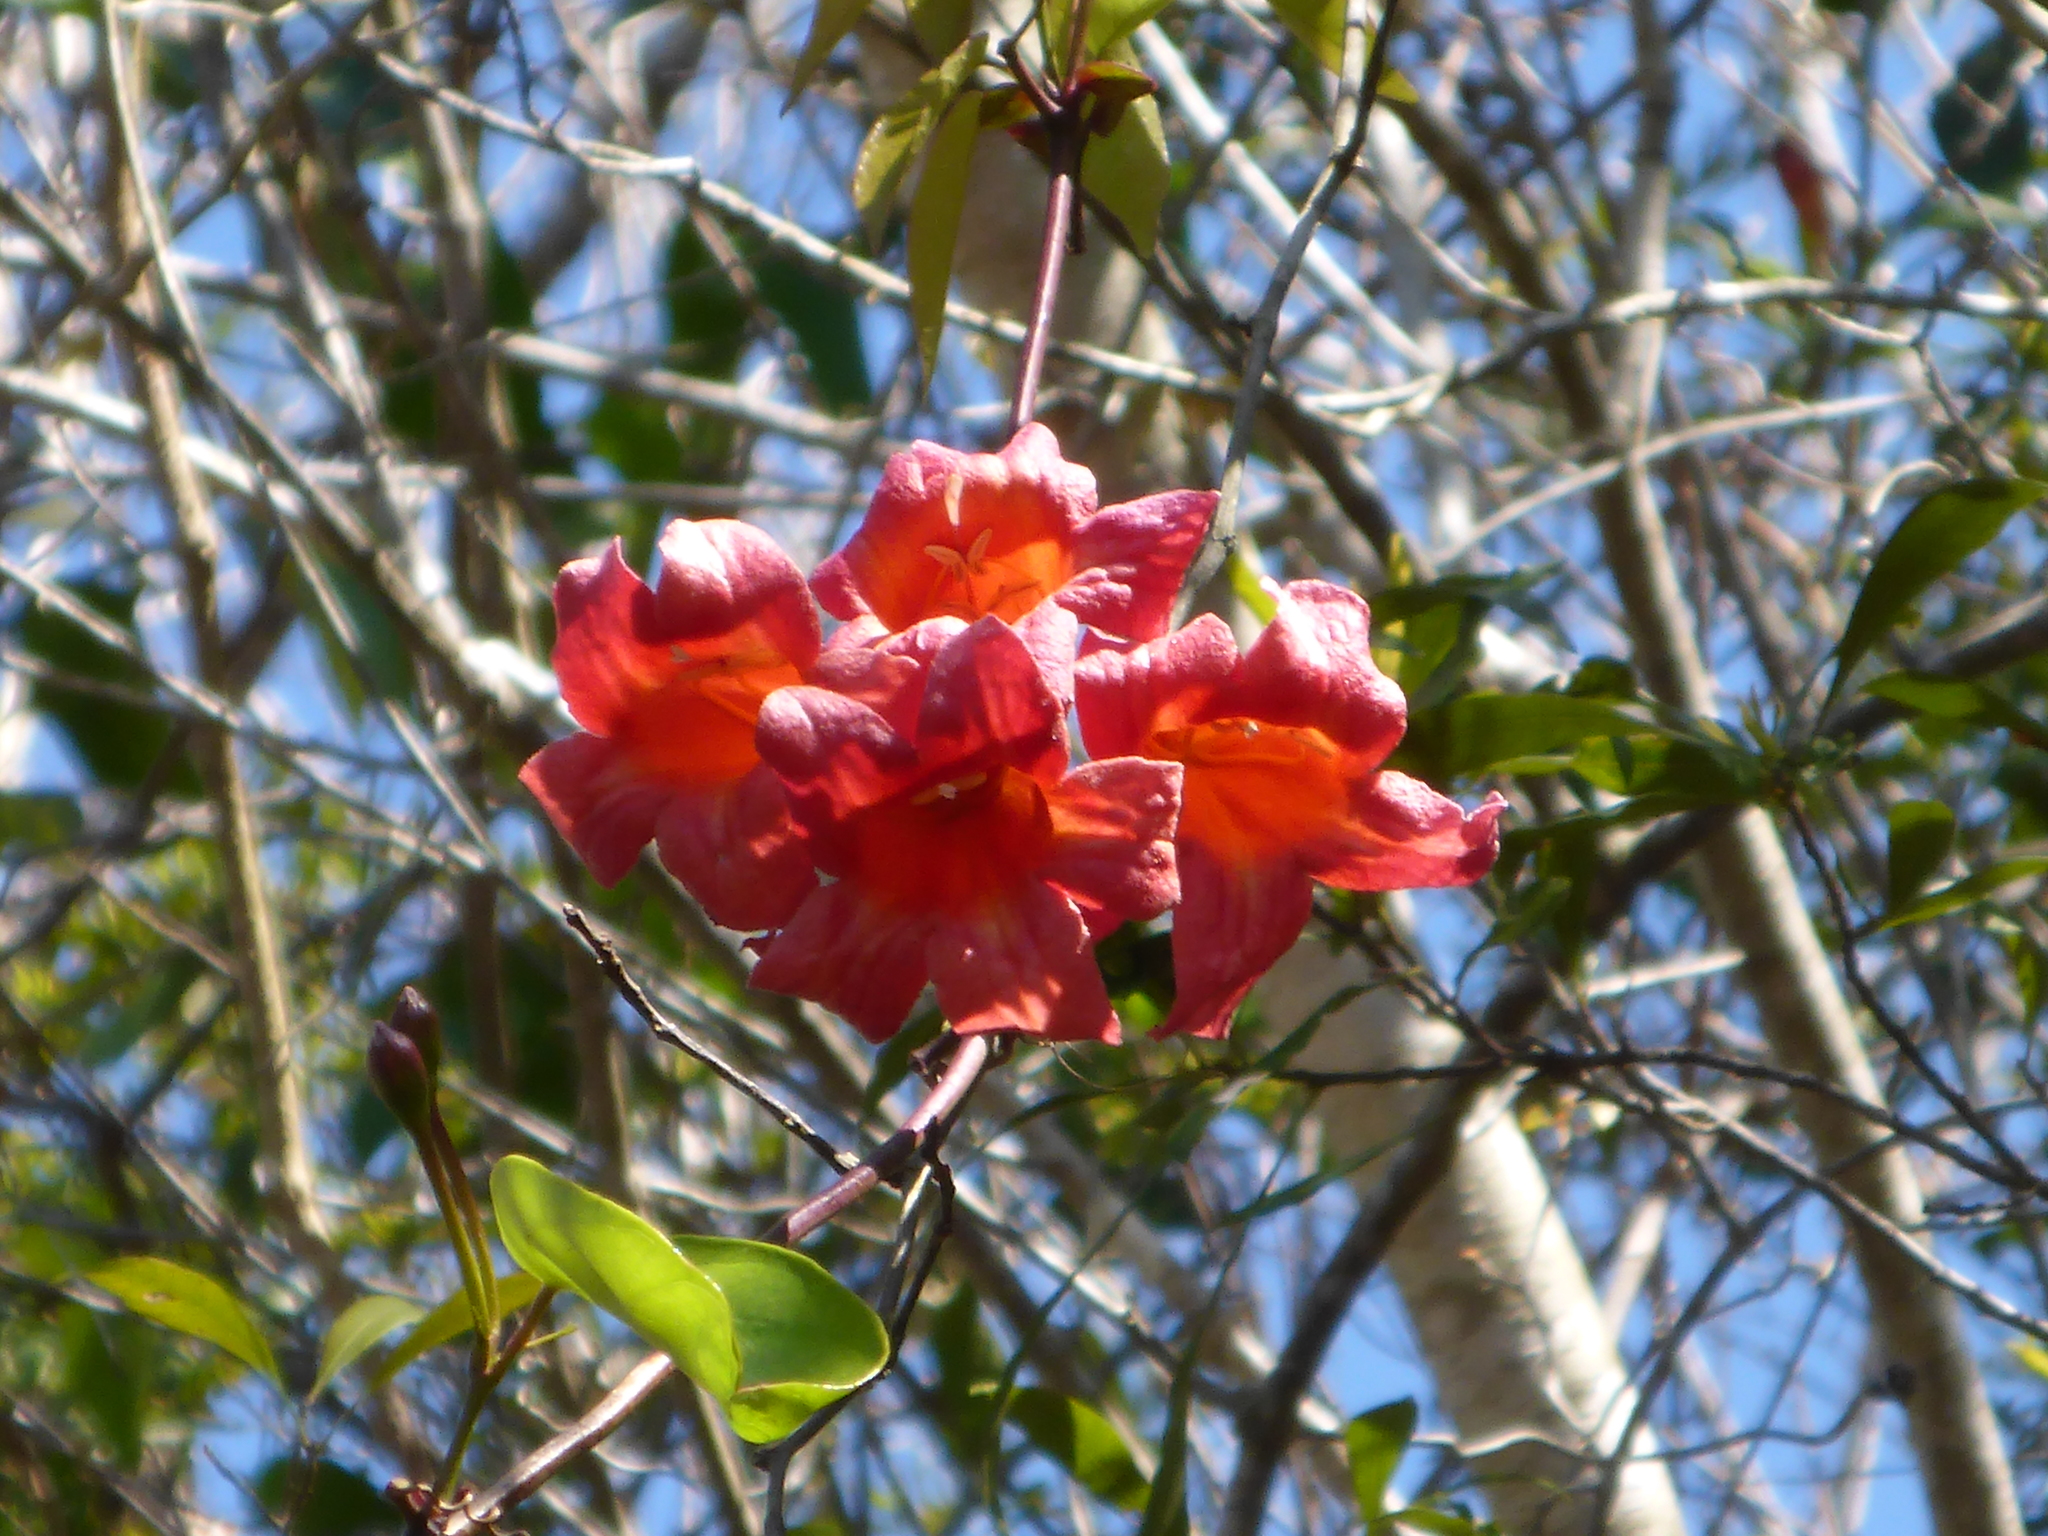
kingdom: Plantae
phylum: Tracheophyta
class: Magnoliopsida
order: Lamiales
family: Bignoniaceae
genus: Bignonia
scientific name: Bignonia capreolata
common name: Crossvine
